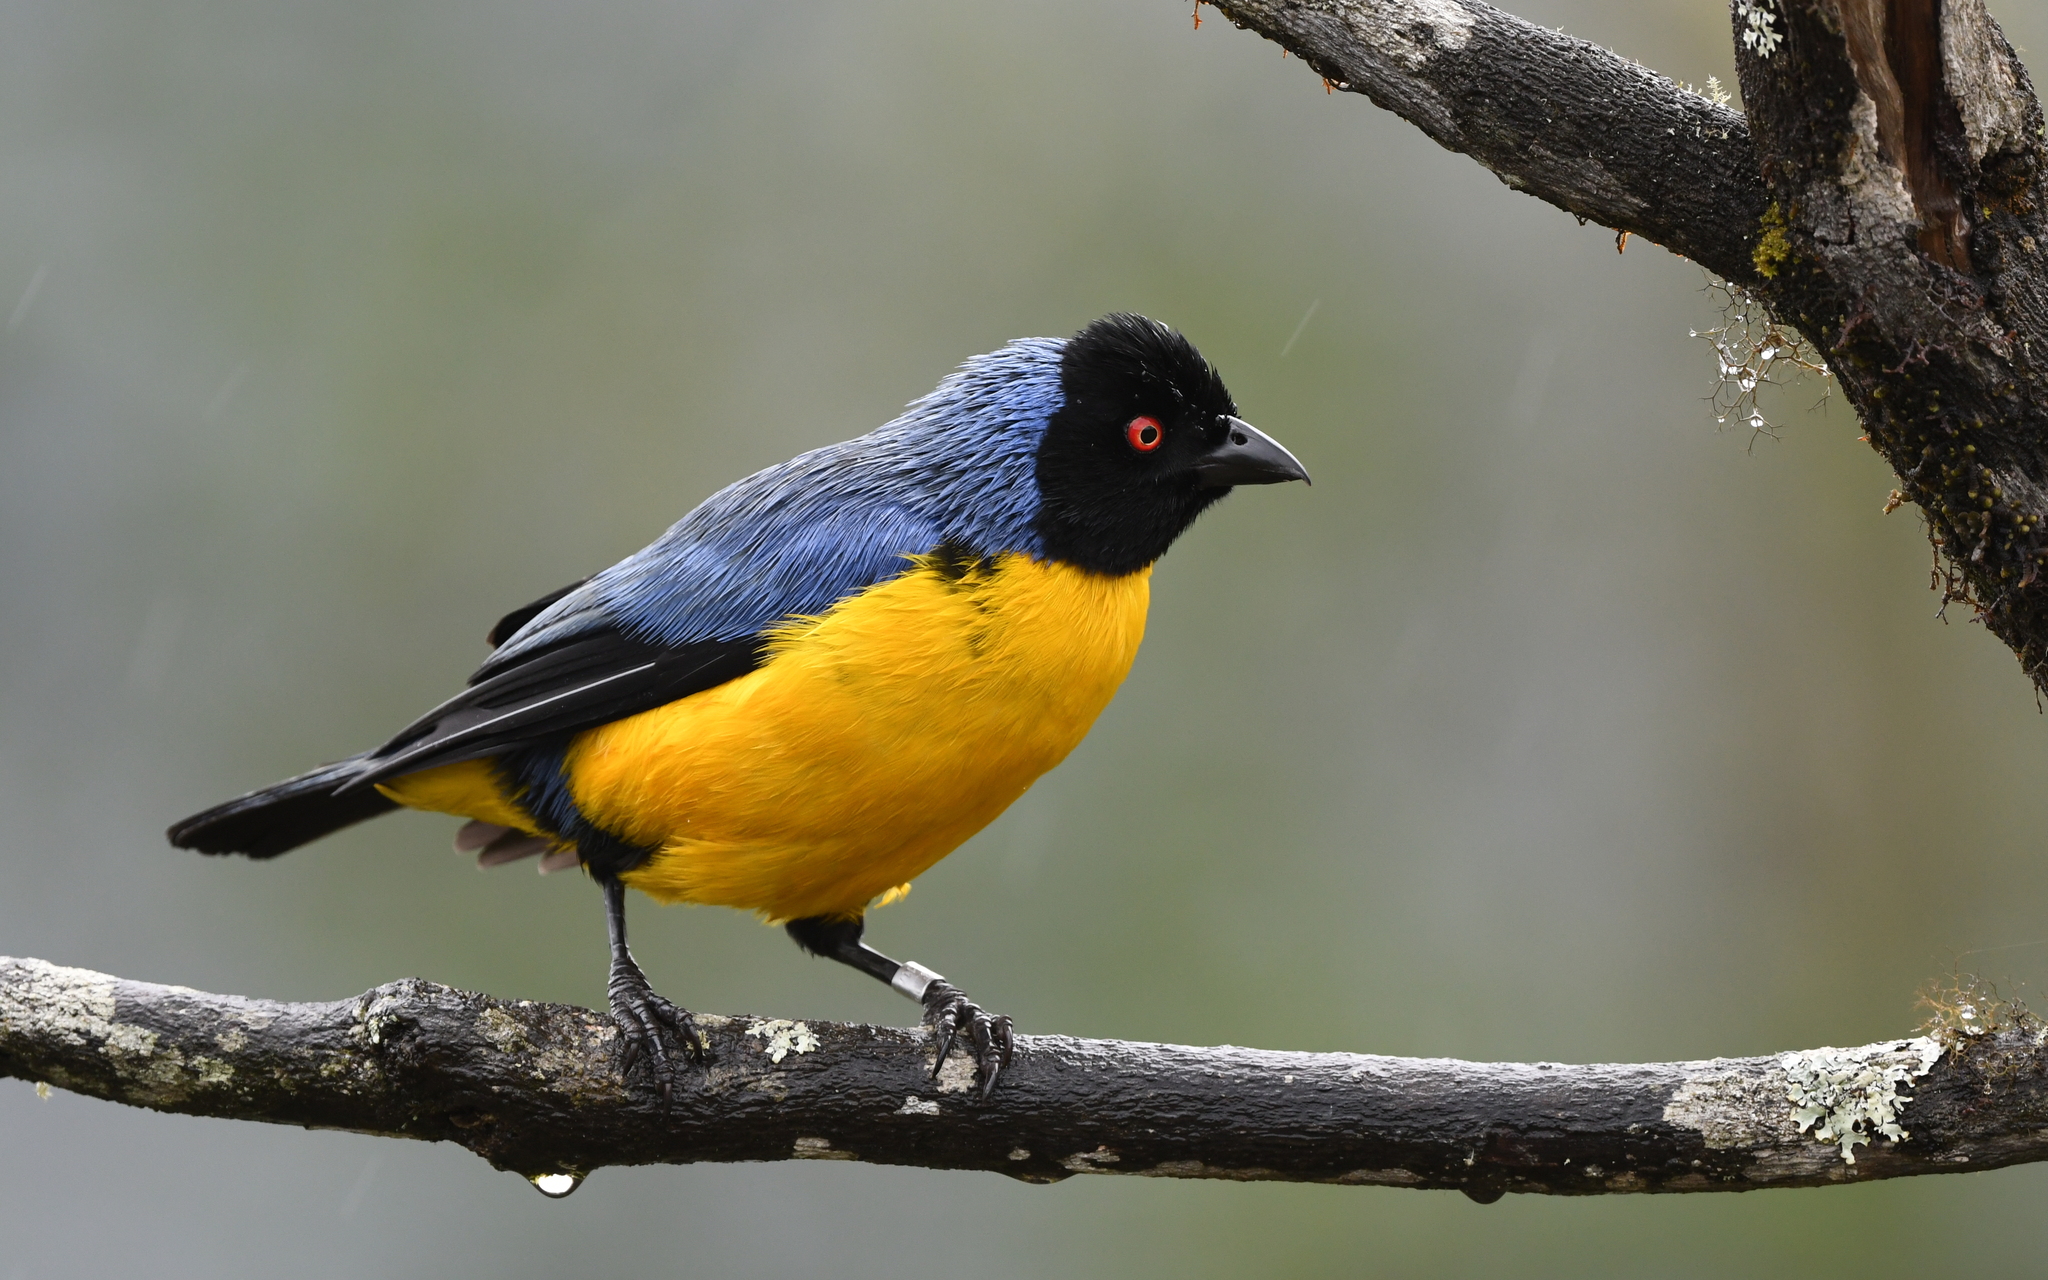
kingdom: Animalia
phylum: Chordata
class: Aves
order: Passeriformes
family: Thraupidae
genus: Buthraupis
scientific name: Buthraupis montana
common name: Hooded mountain tanager
